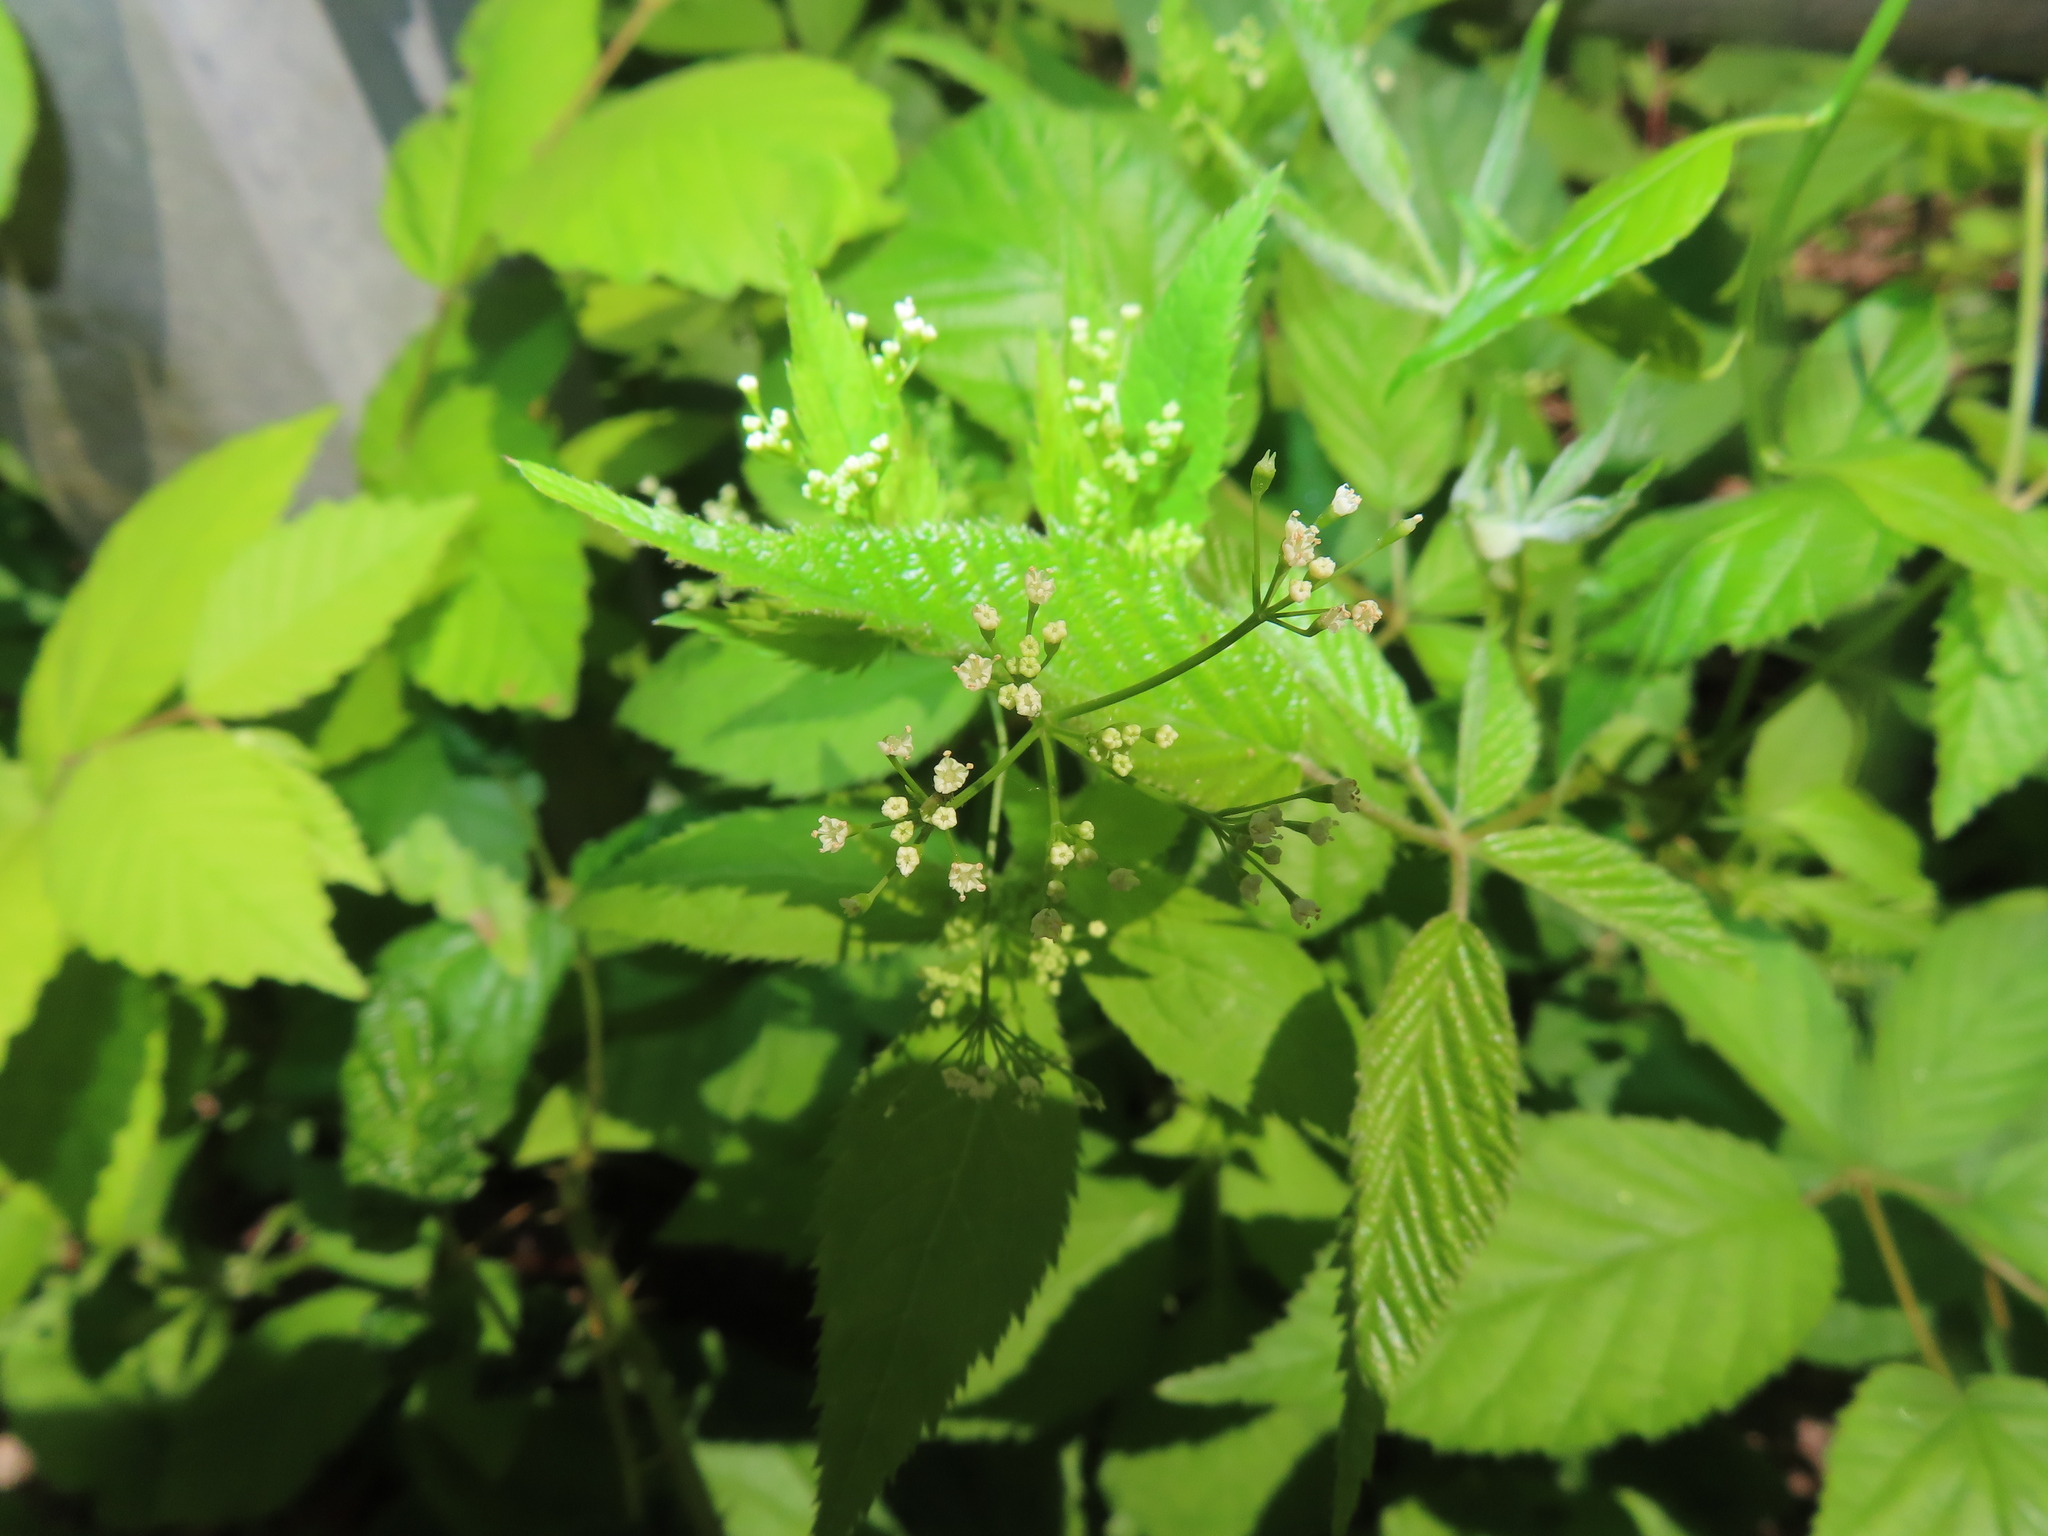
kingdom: Plantae
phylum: Tracheophyta
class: Magnoliopsida
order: Apiales
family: Apiaceae
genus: Cryptotaenia
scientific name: Cryptotaenia canadensis
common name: Honewort
